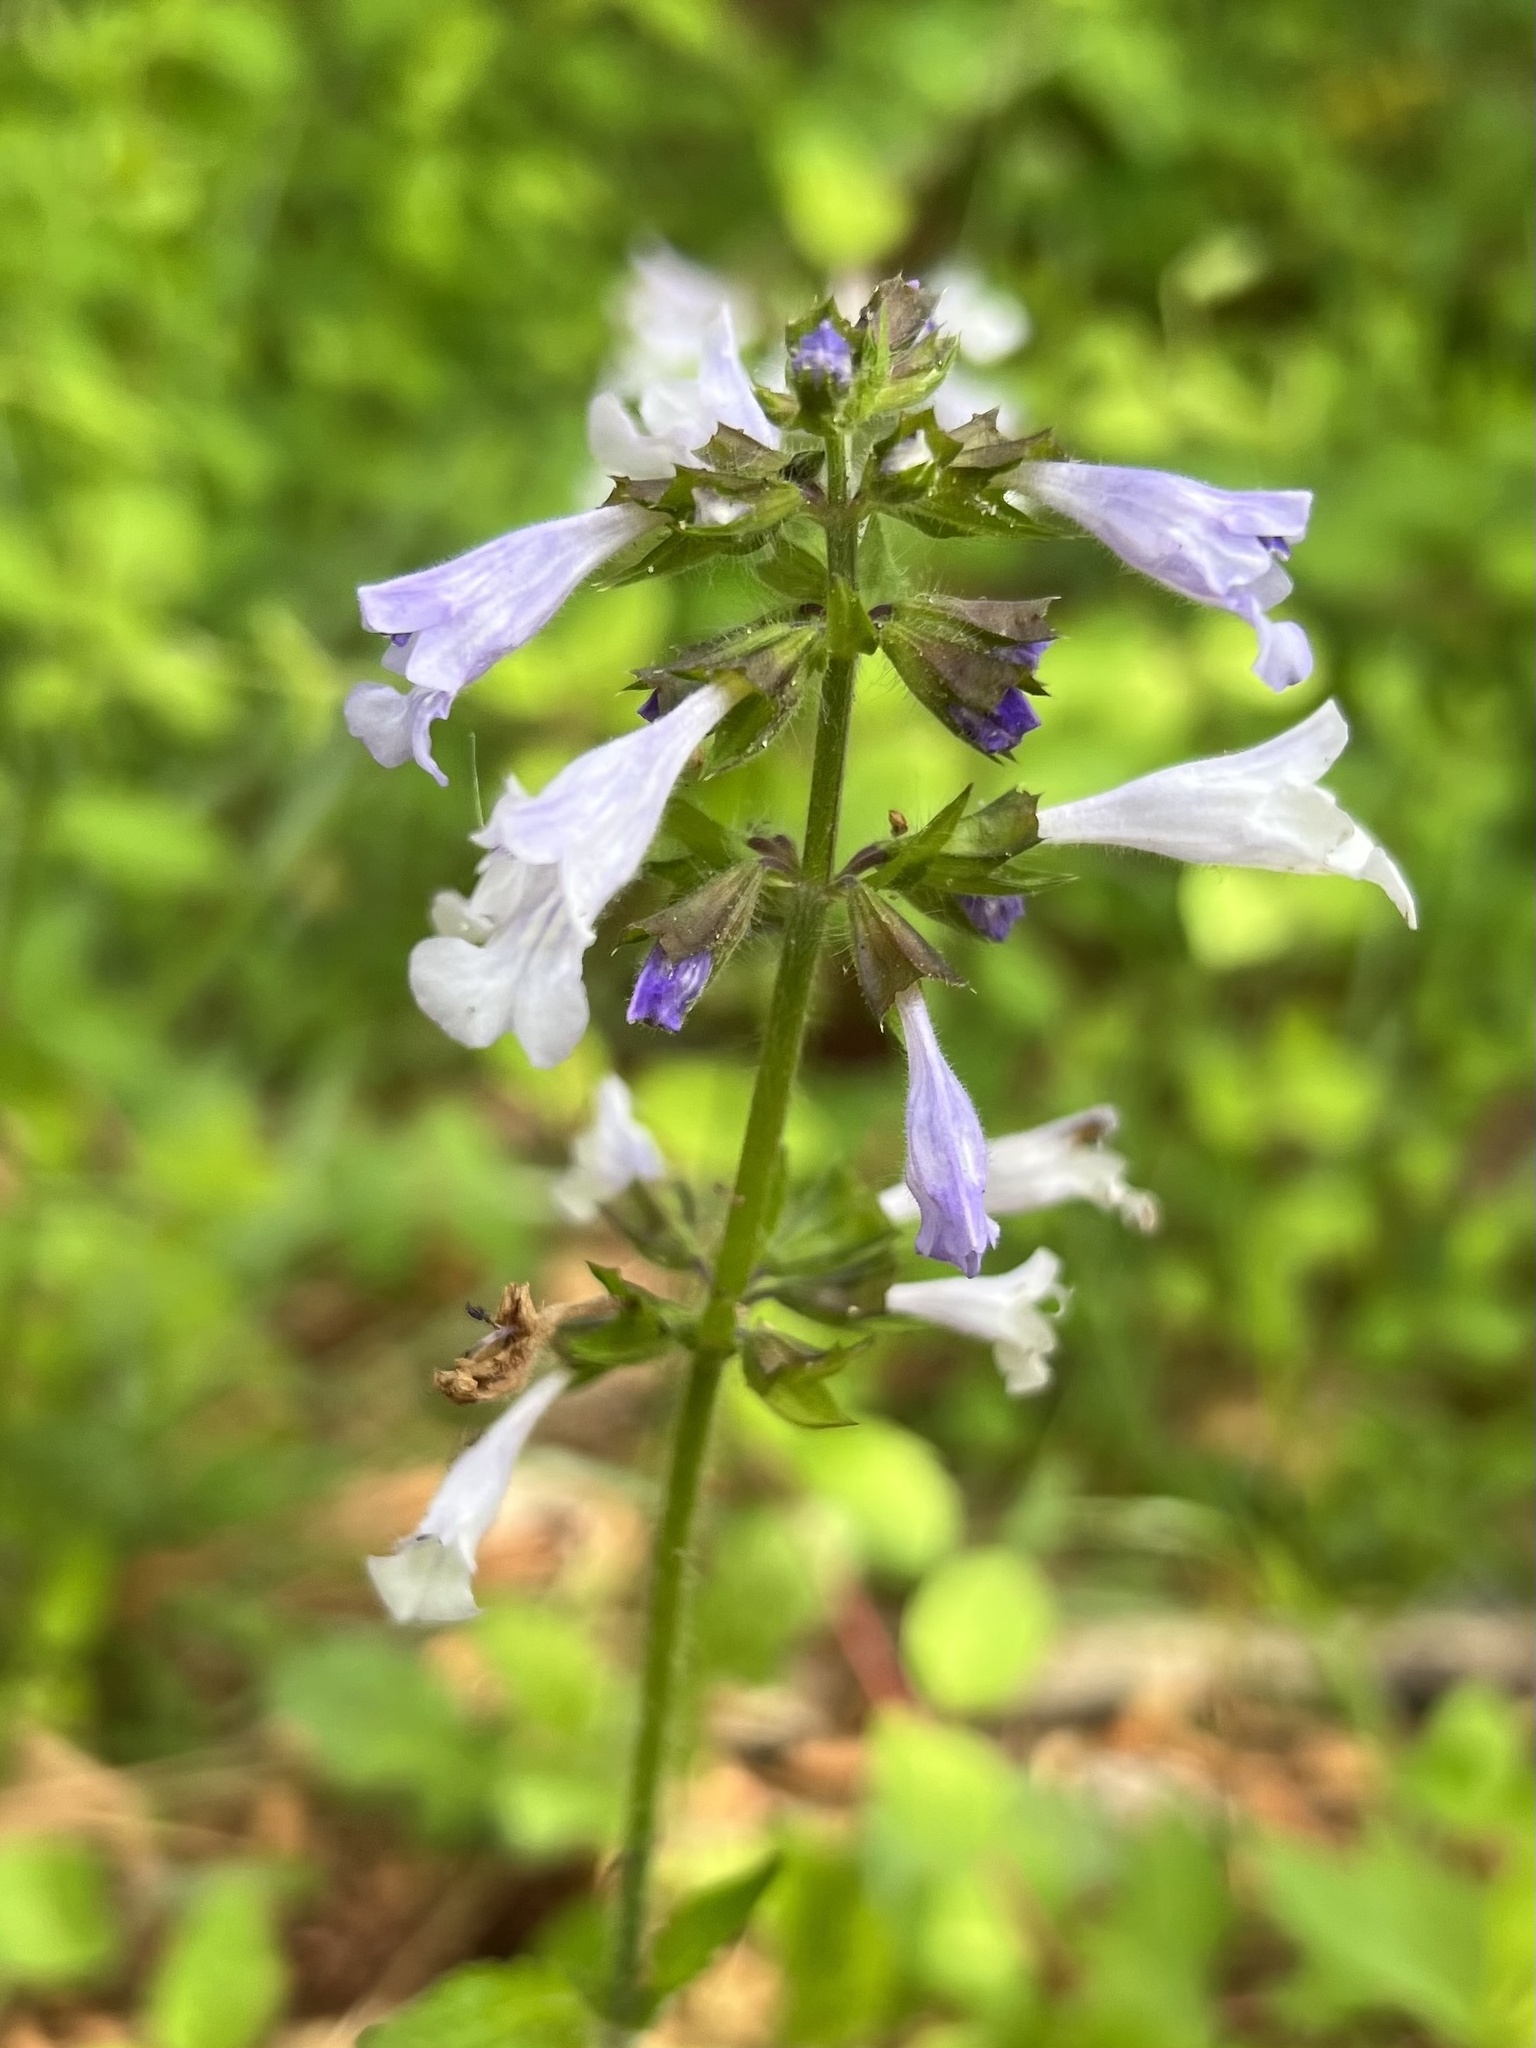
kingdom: Plantae
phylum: Tracheophyta
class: Magnoliopsida
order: Lamiales
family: Lamiaceae
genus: Salvia
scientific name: Salvia lyrata
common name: Cancerweed
